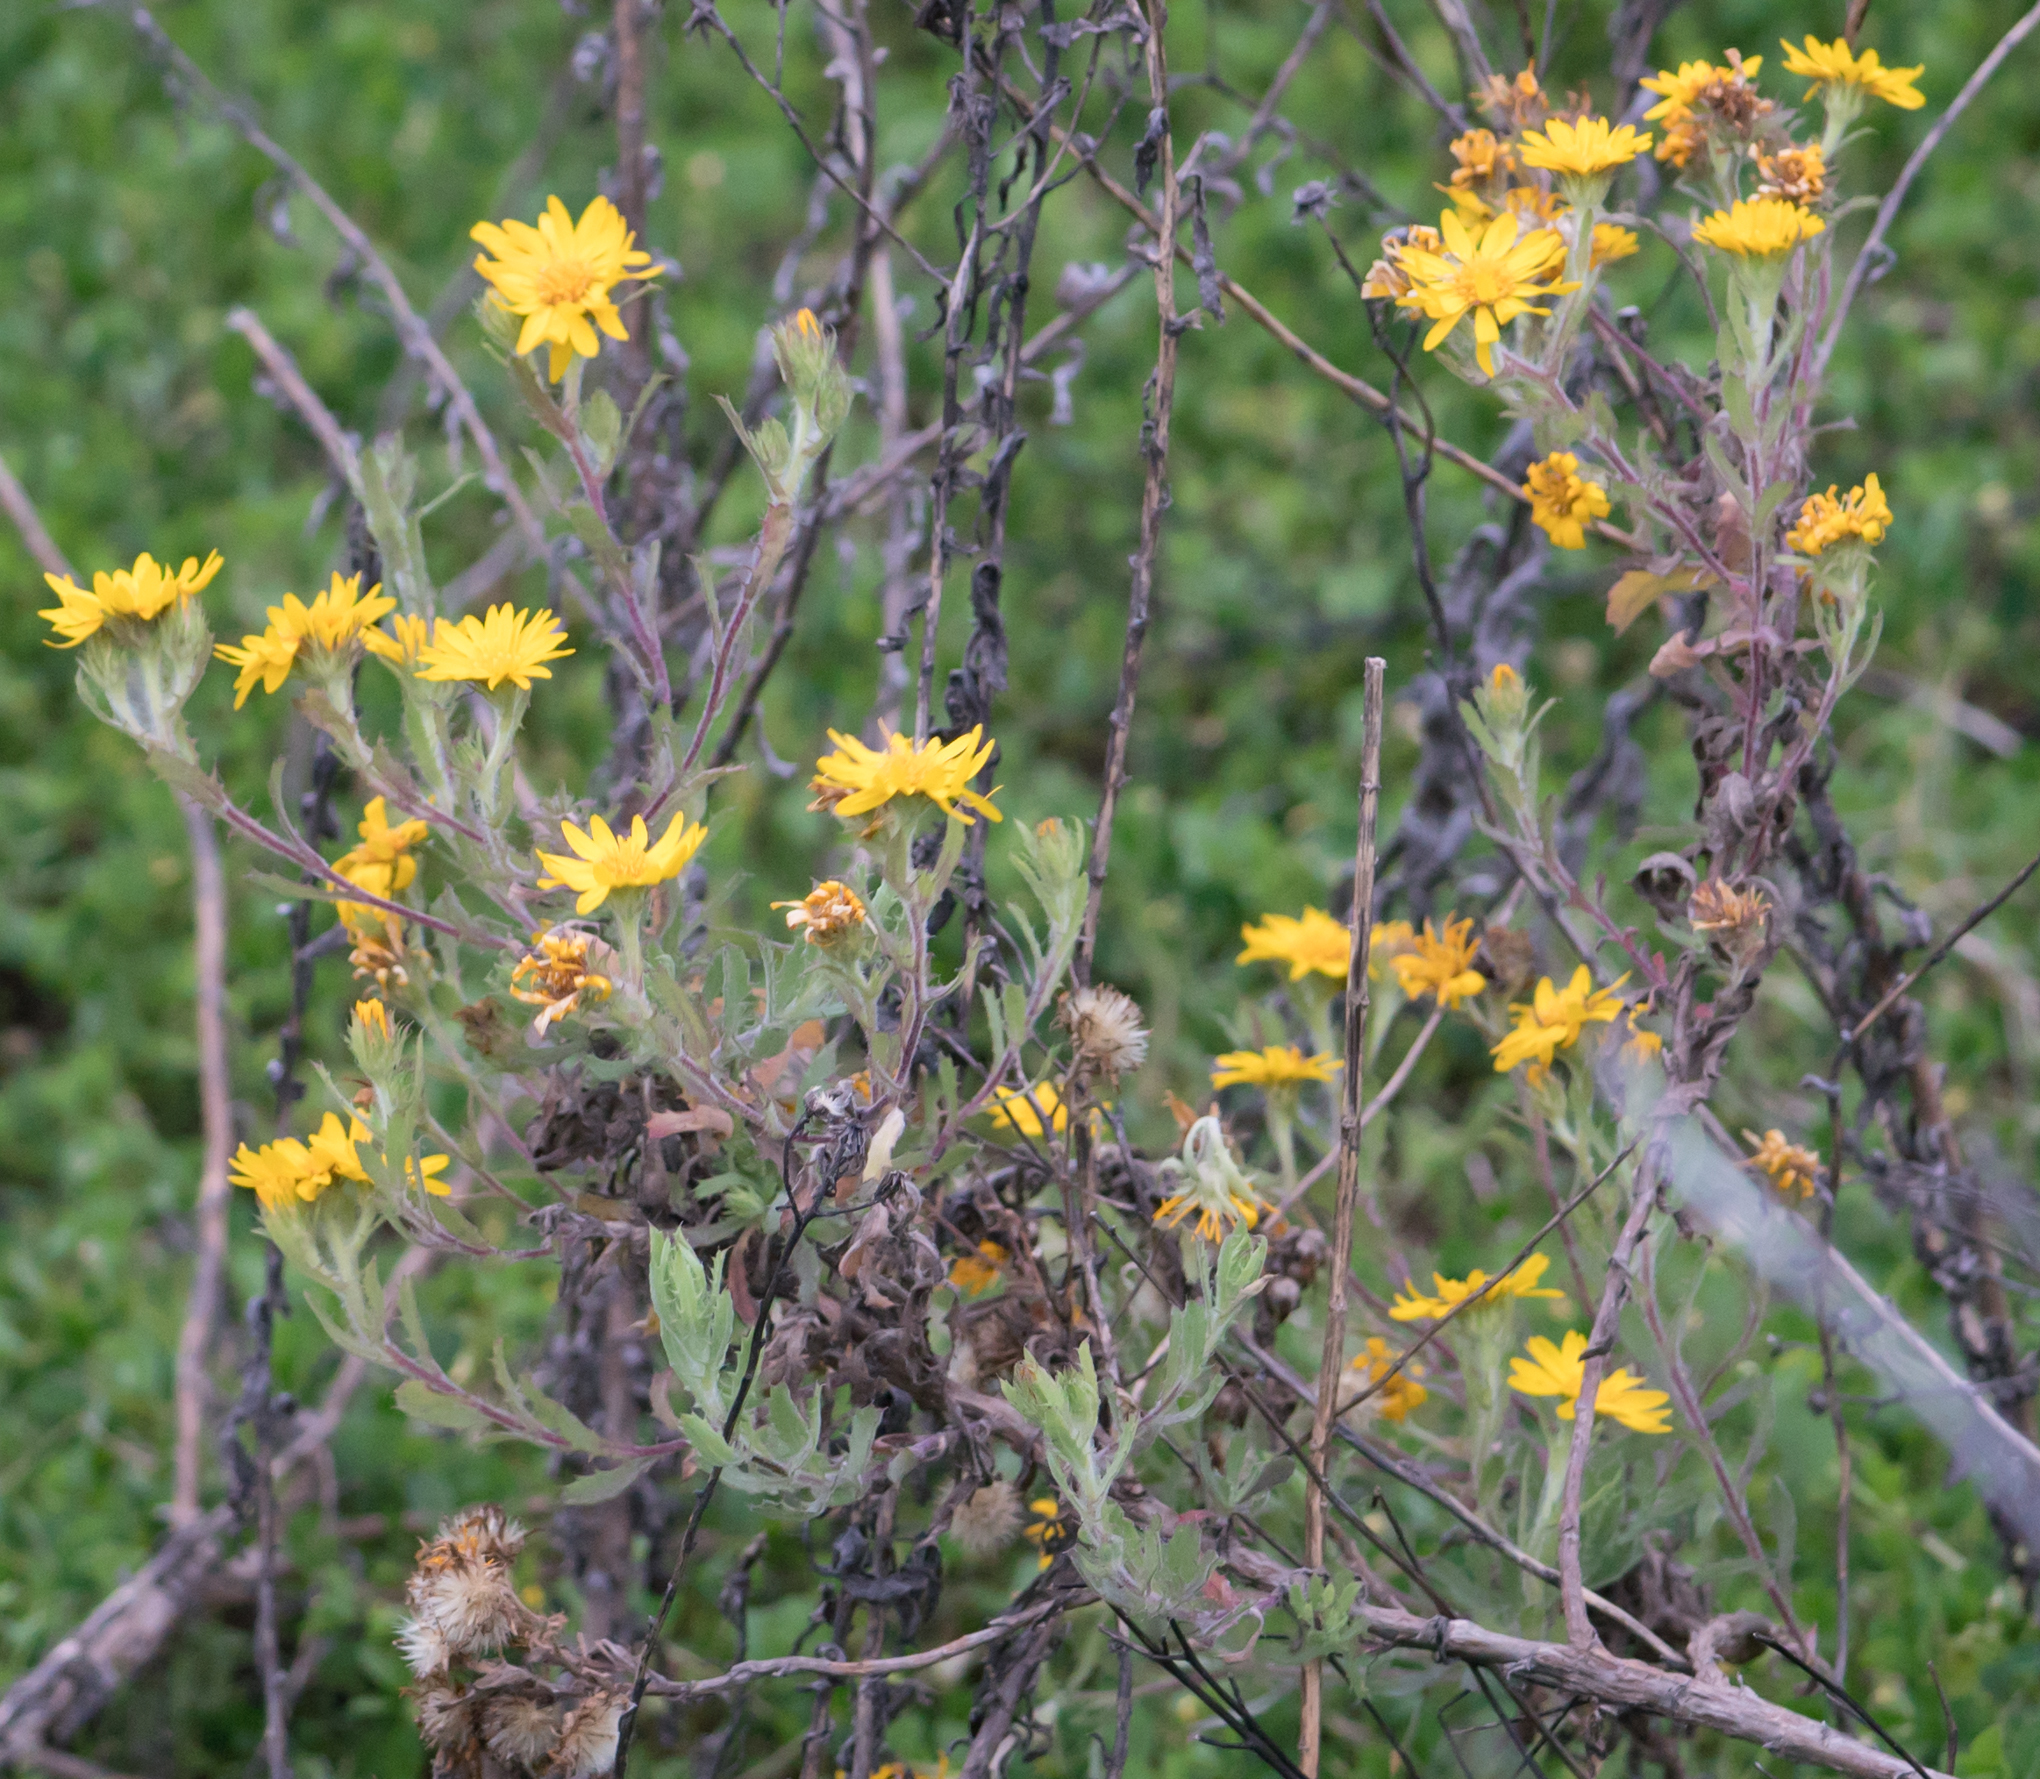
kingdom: Plantae
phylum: Tracheophyta
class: Magnoliopsida
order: Asterales
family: Asteraceae
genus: Heterotheca
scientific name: Heterotheca subaxillaris
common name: Camphorweed
